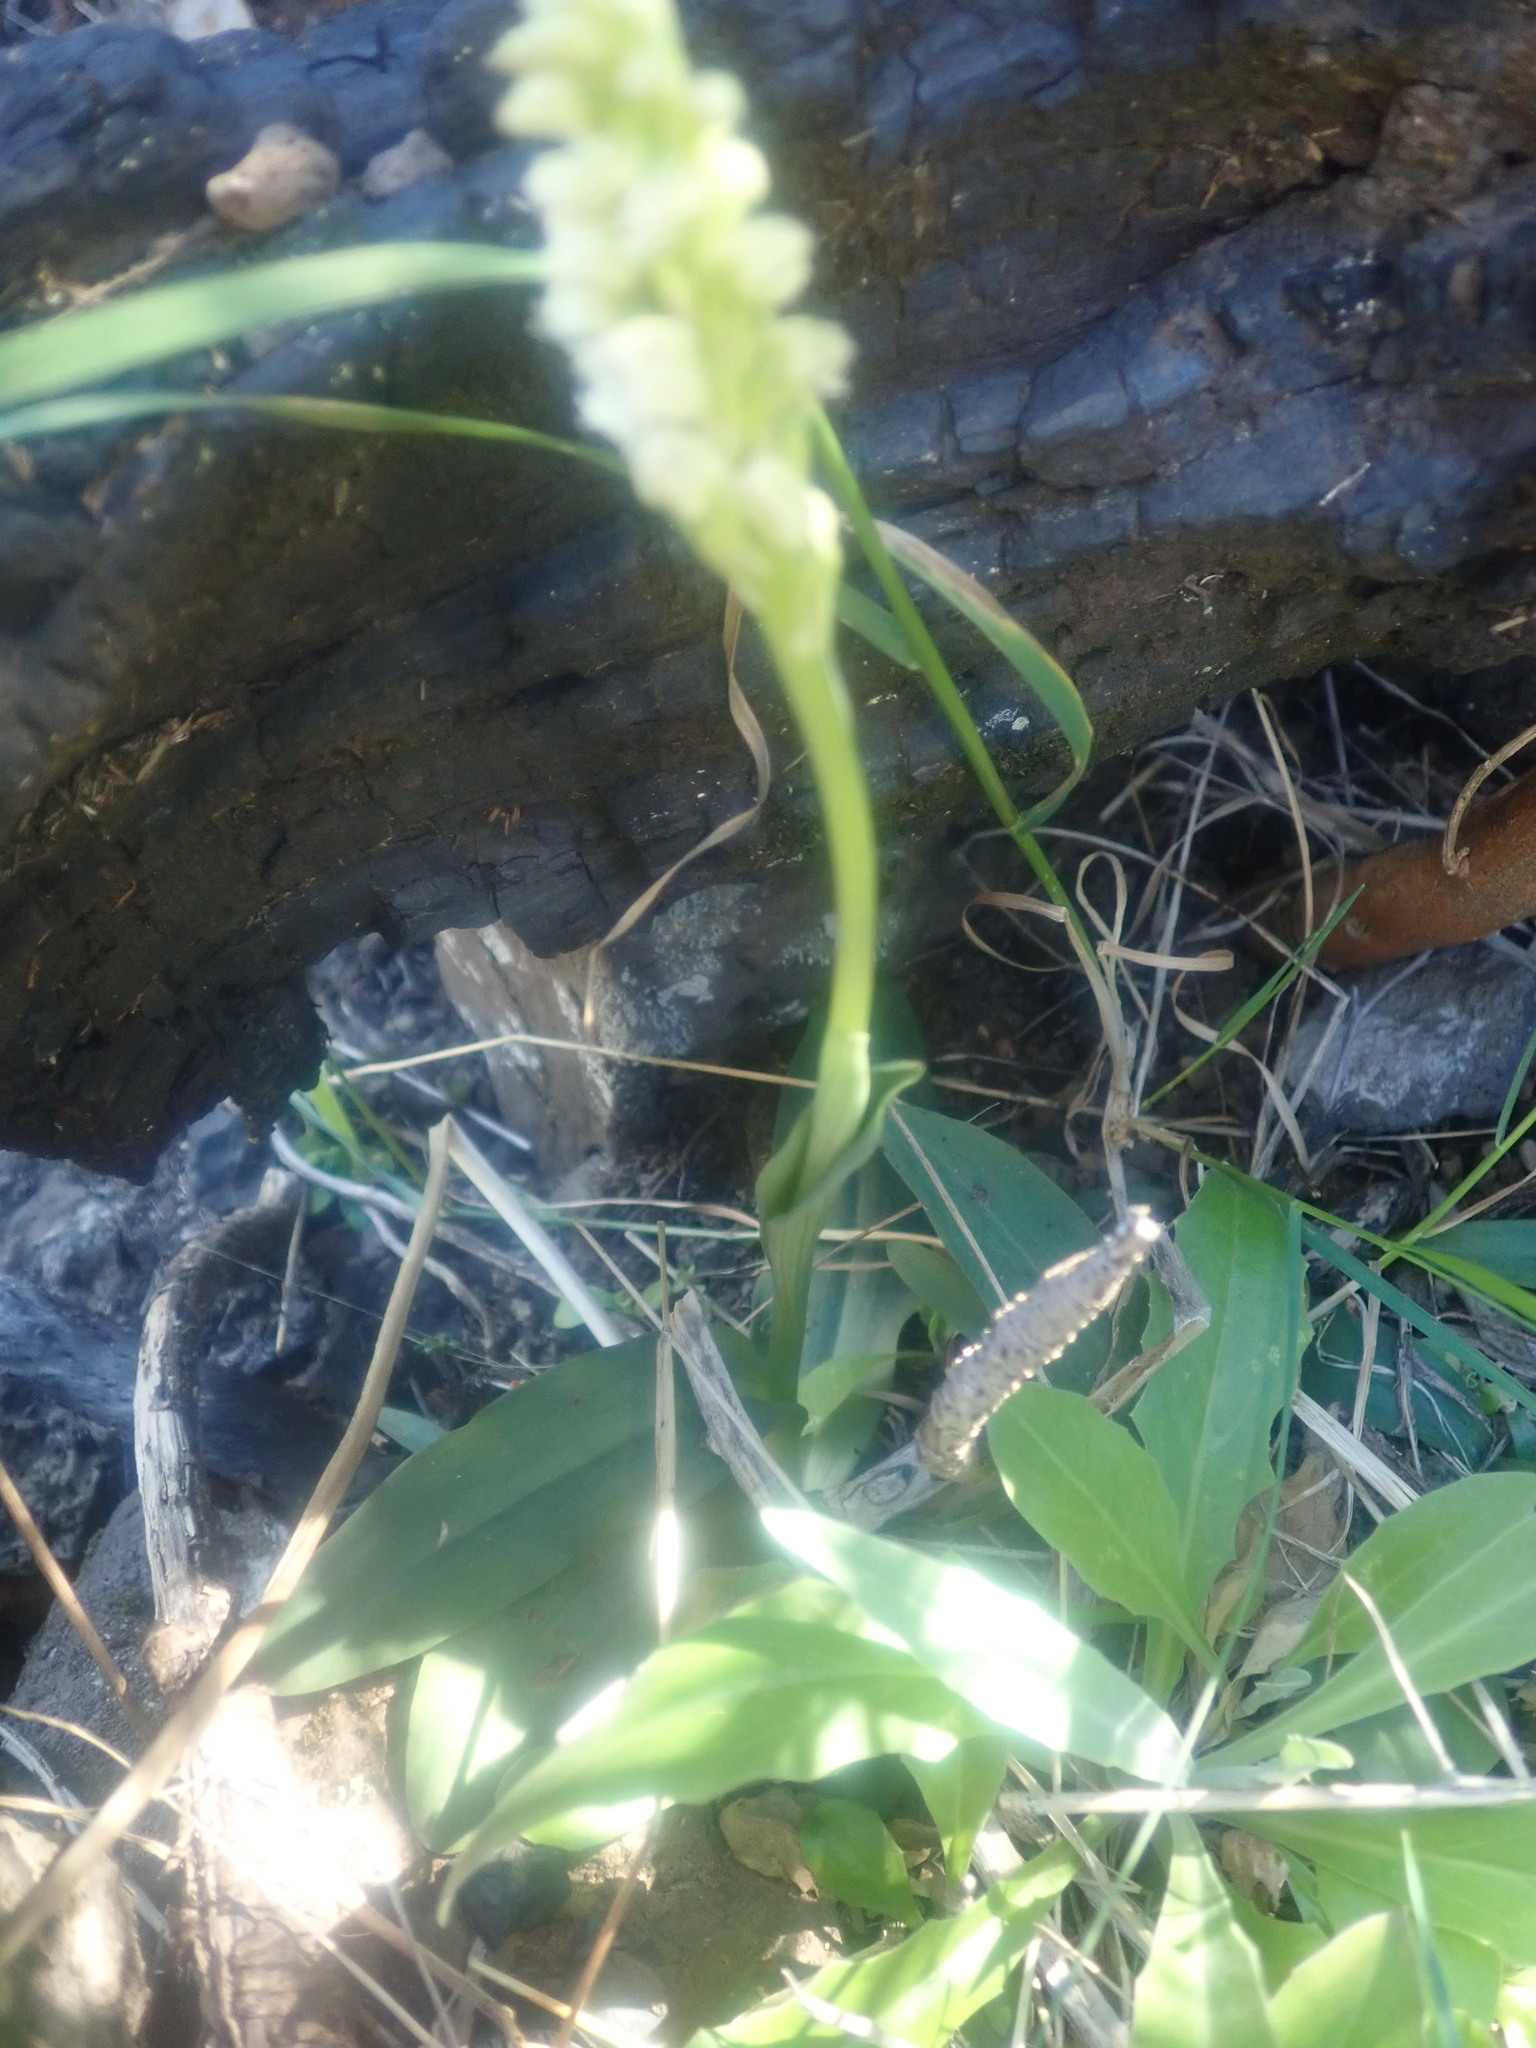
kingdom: Plantae
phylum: Tracheophyta
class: Liliopsida
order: Asparagales
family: Orchidaceae
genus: Neotinea
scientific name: Neotinea maculata
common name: Dense-flowered orchid
